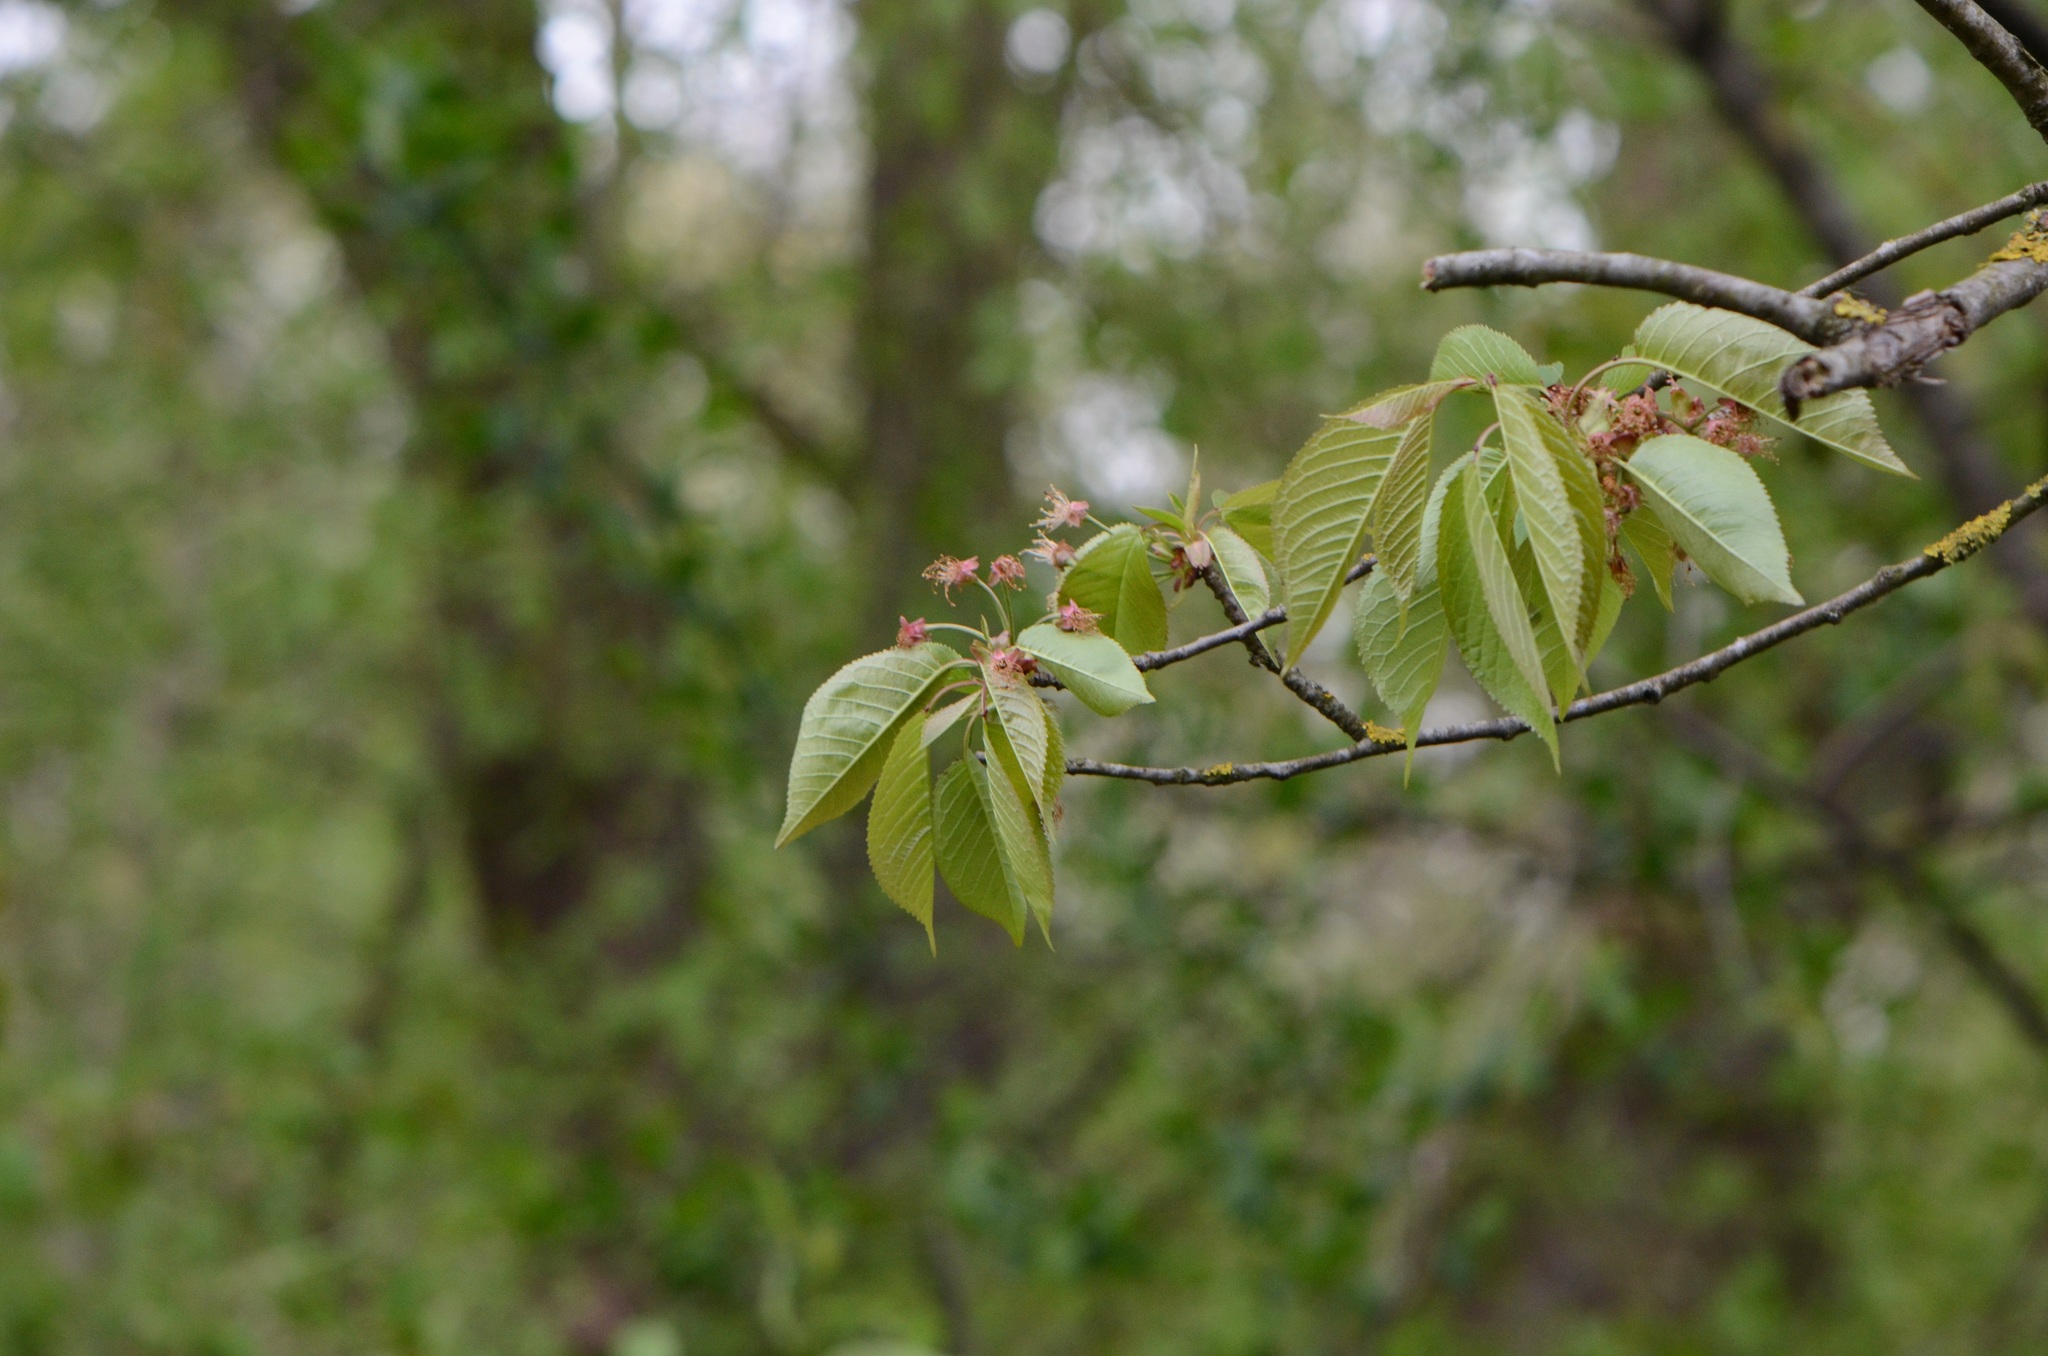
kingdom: Plantae
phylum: Tracheophyta
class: Magnoliopsida
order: Rosales
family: Rosaceae
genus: Prunus
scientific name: Prunus avium
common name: Sweet cherry
